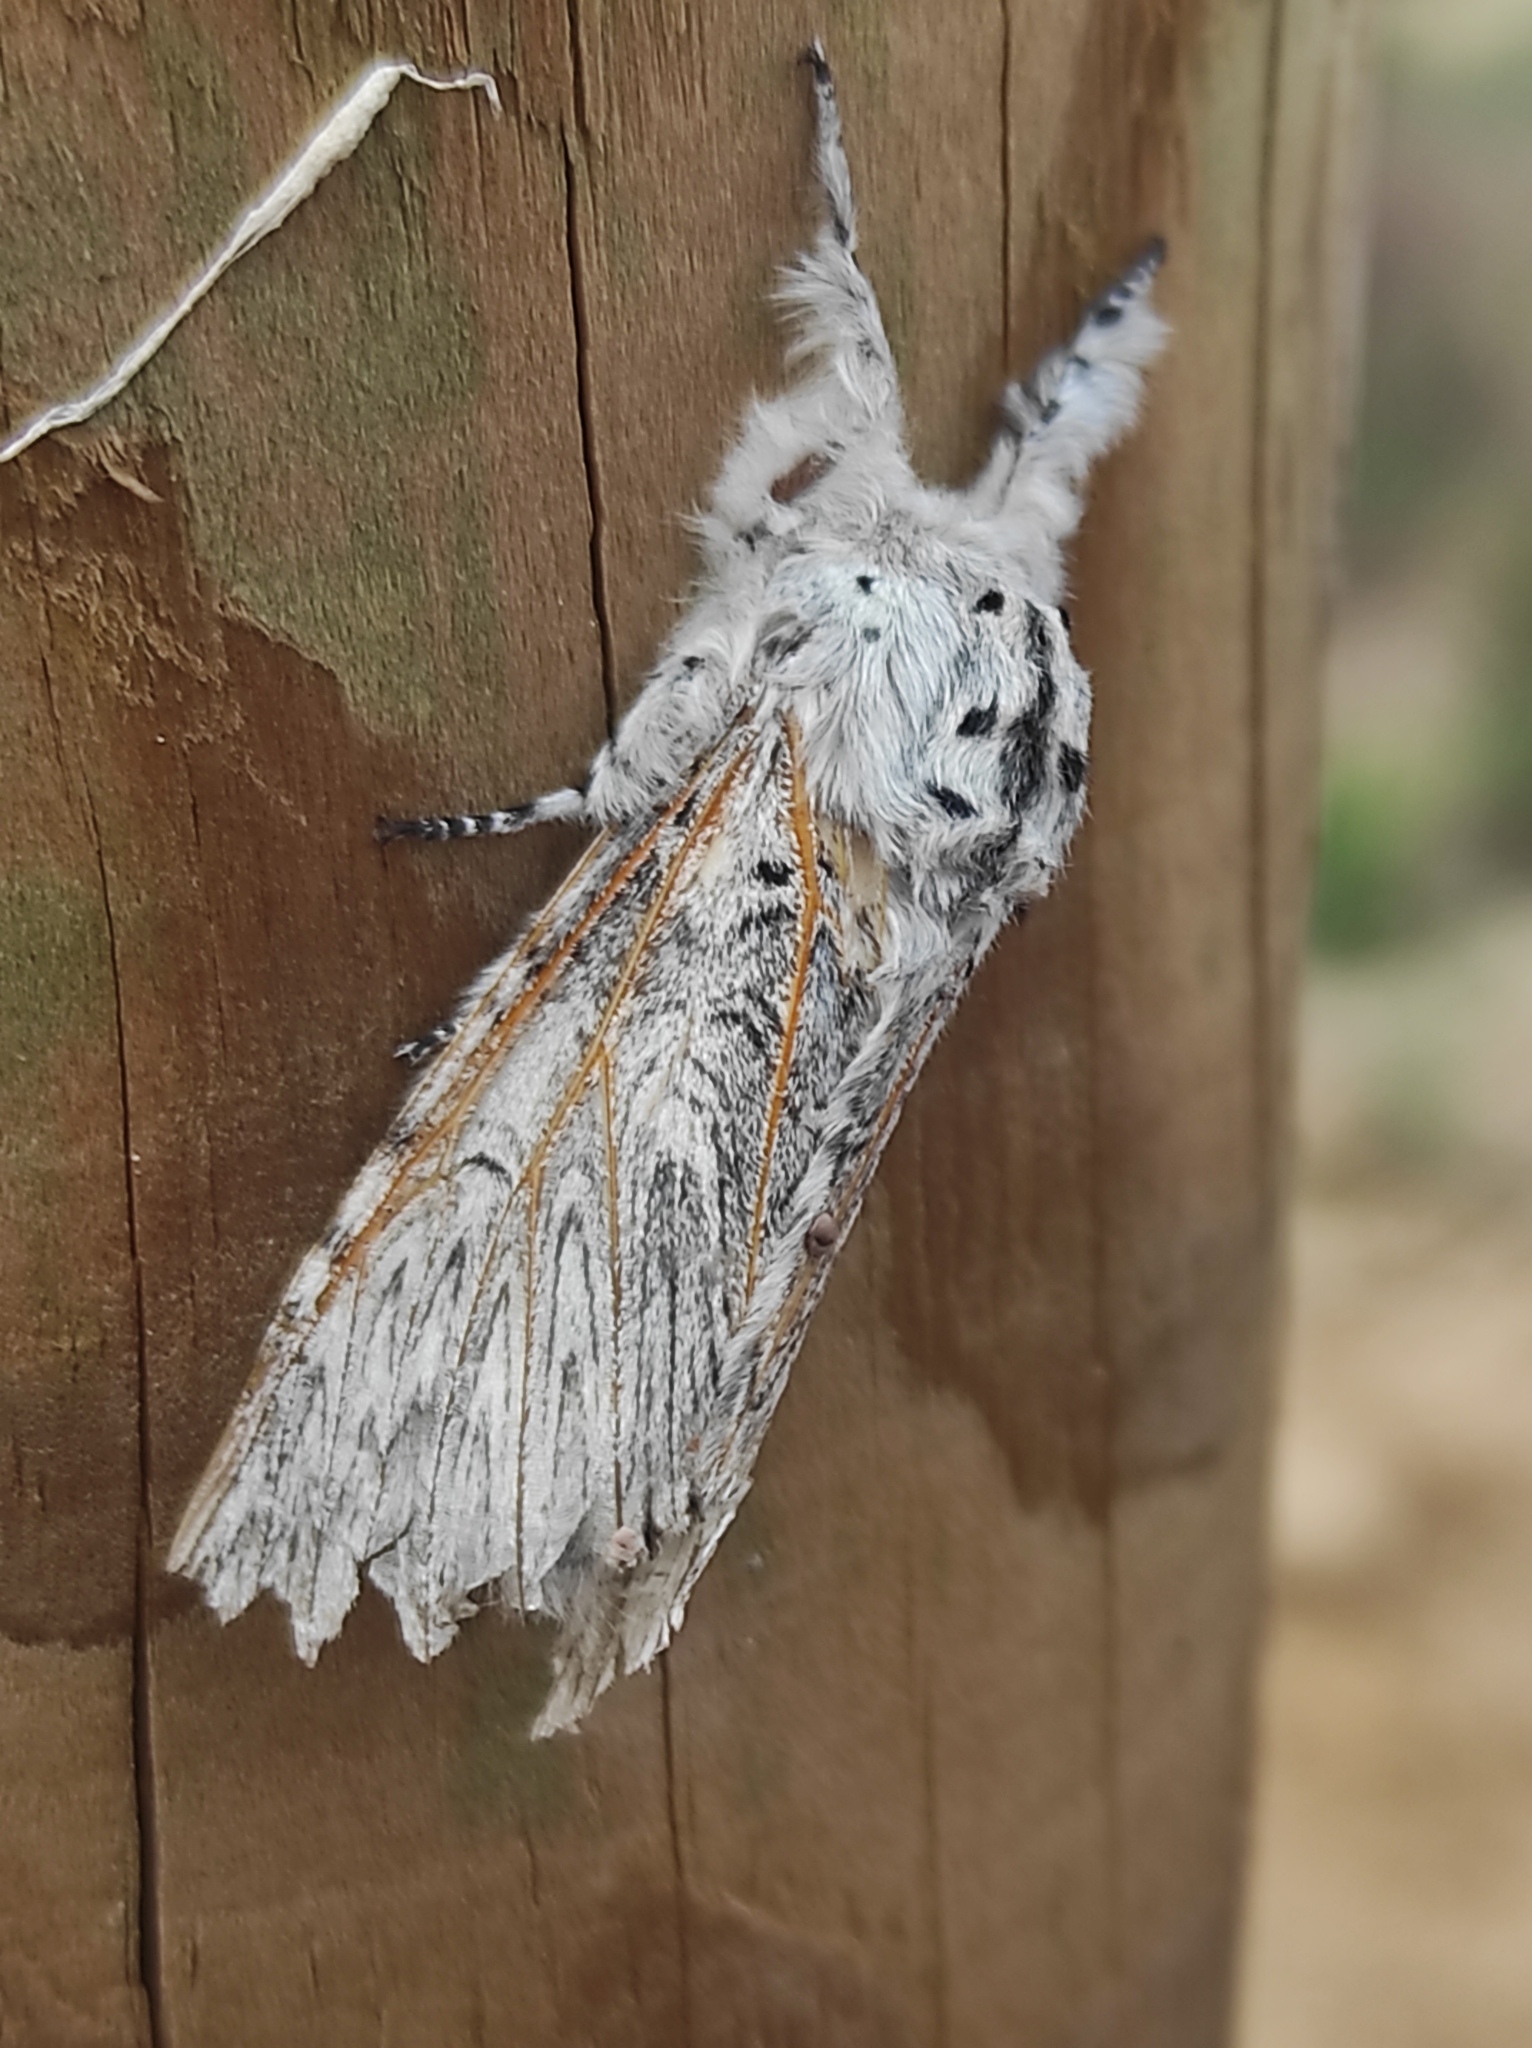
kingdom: Animalia
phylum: Arthropoda
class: Insecta
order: Lepidoptera
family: Notodontidae
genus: Cerura
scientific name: Cerura iberica
